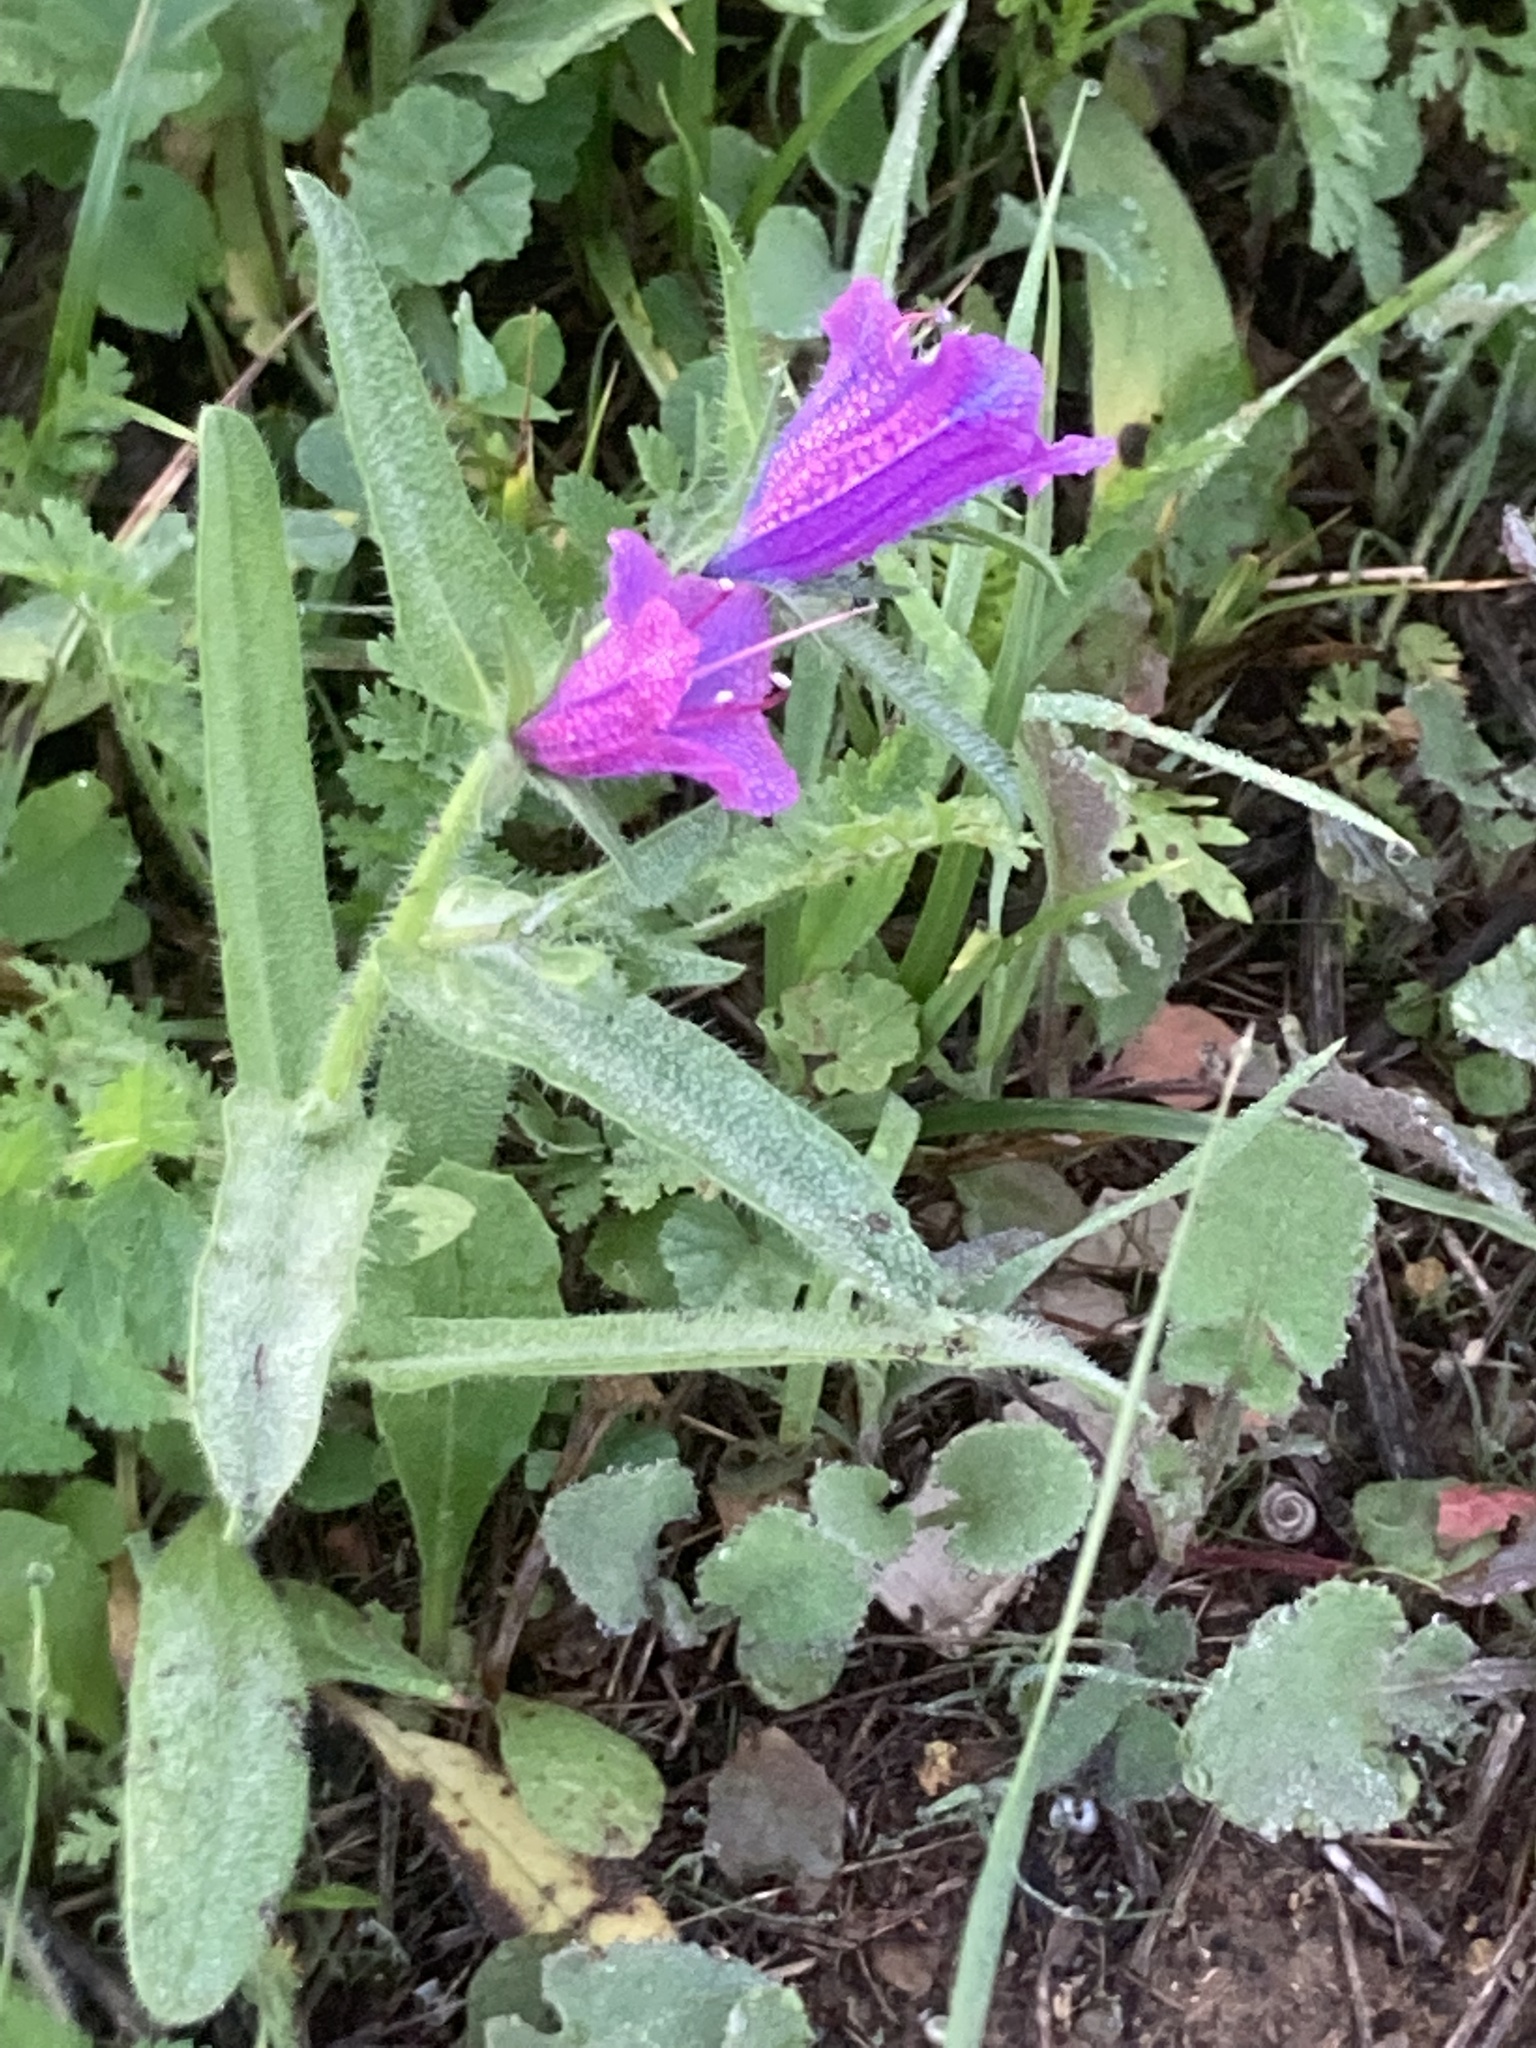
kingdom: Plantae
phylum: Tracheophyta
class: Magnoliopsida
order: Boraginales
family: Boraginaceae
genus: Echium
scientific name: Echium plantagineum
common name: Purple viper's-bugloss
